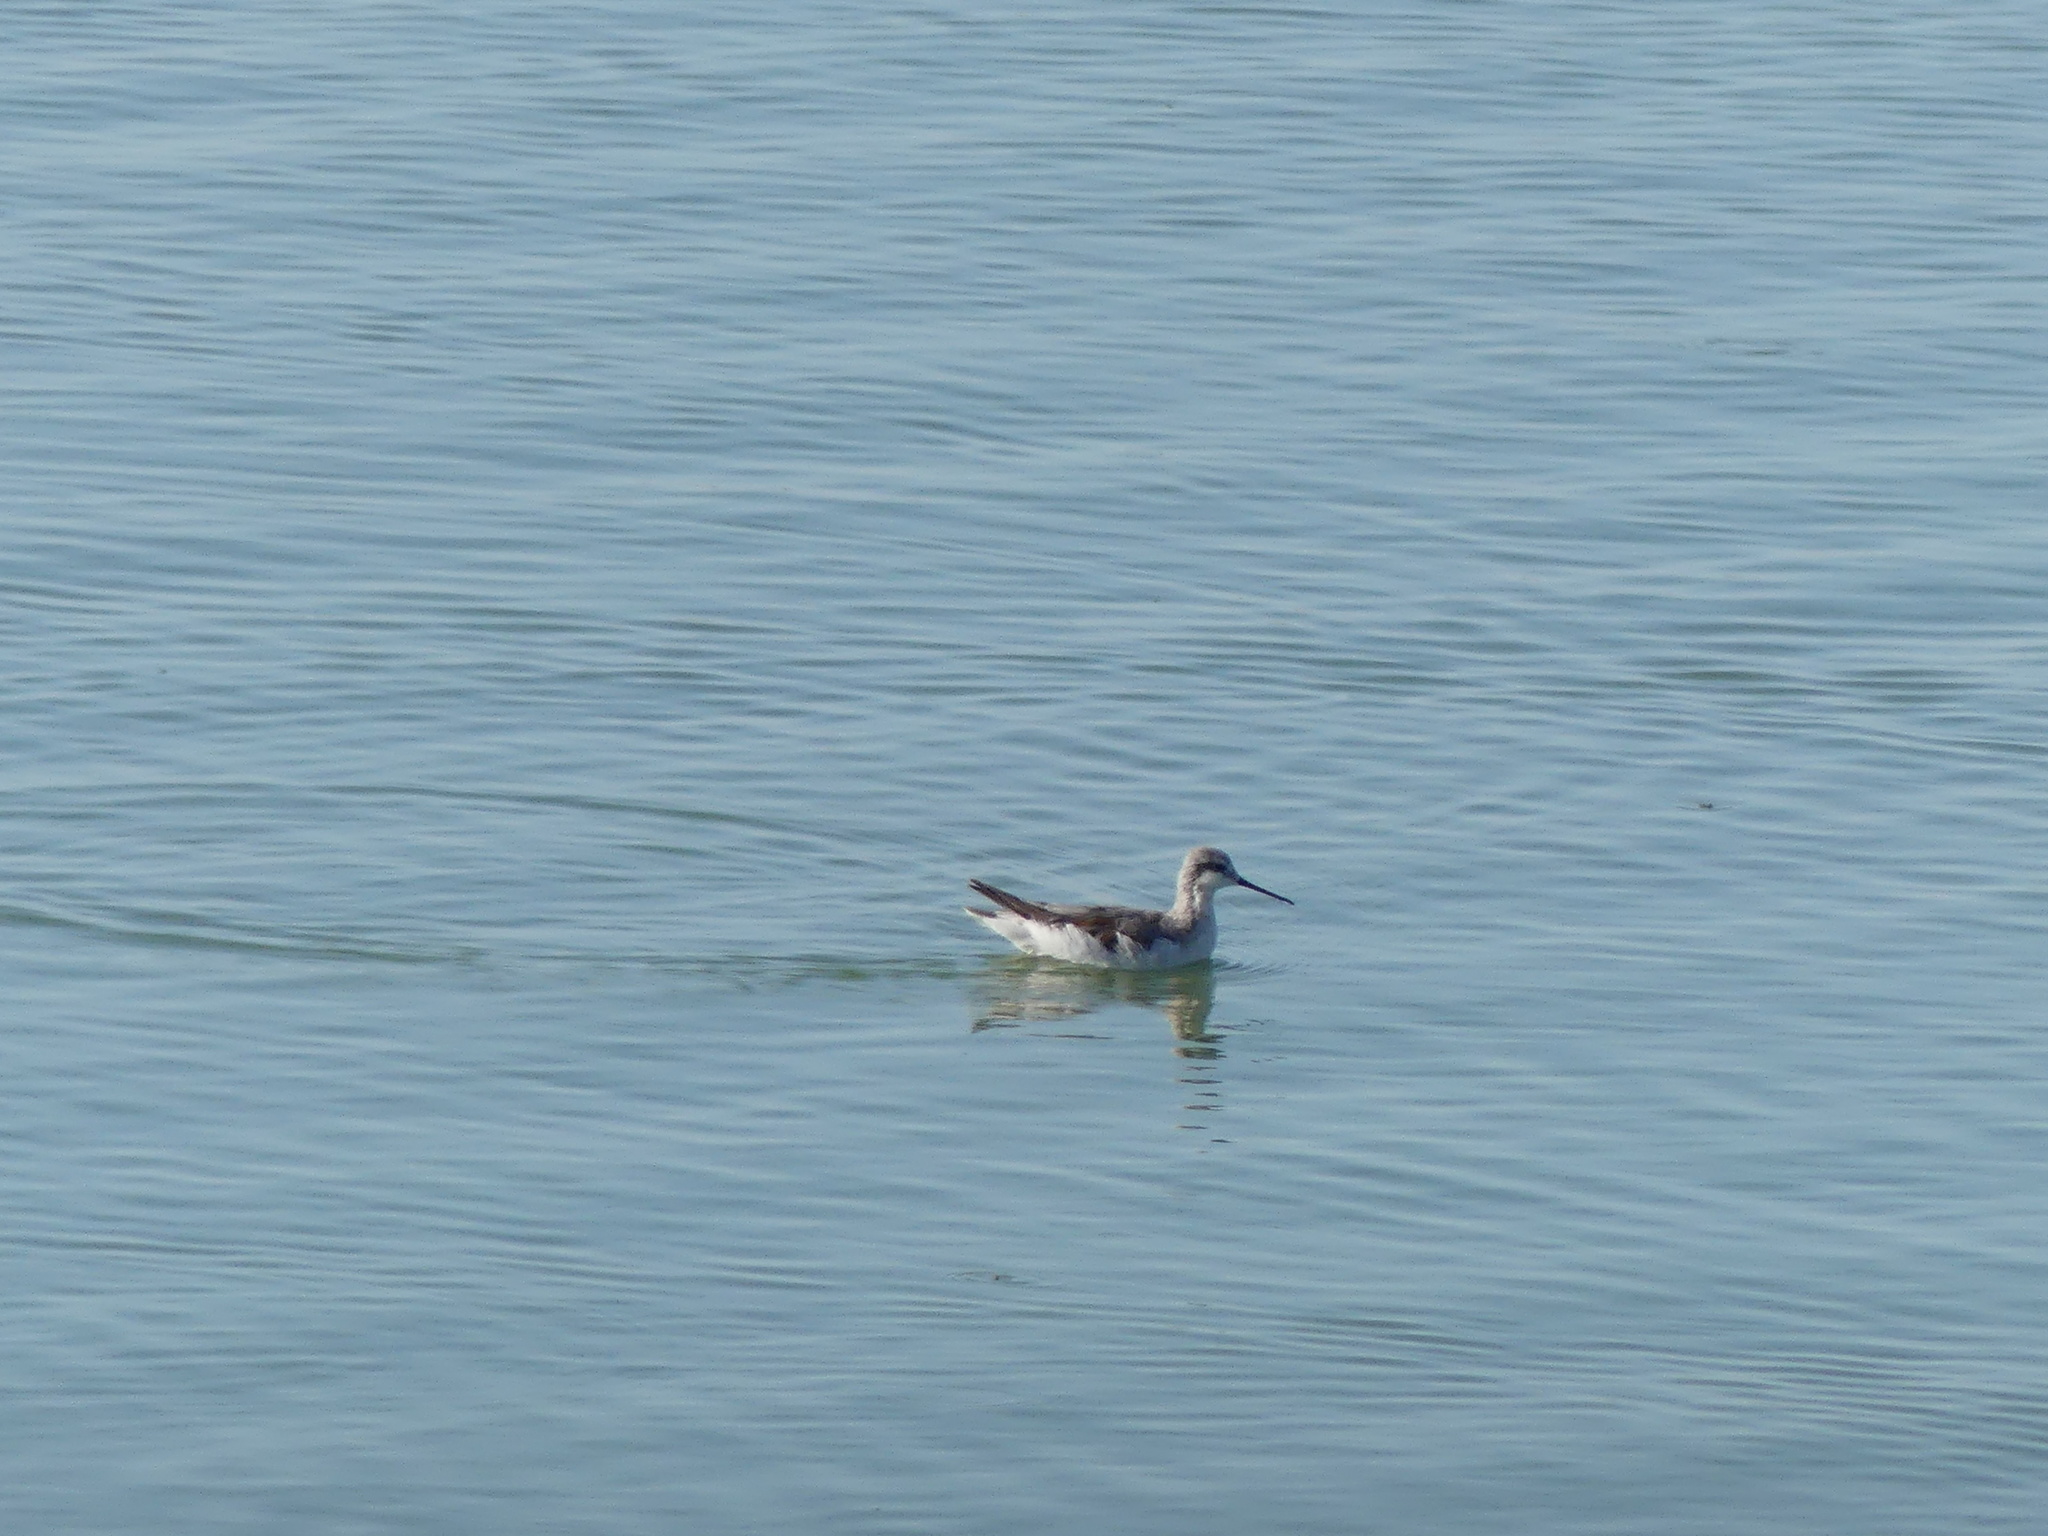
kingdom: Animalia
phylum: Chordata
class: Aves
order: Charadriiformes
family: Scolopacidae
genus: Phalaropus
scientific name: Phalaropus tricolor
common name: Wilson's phalarope
